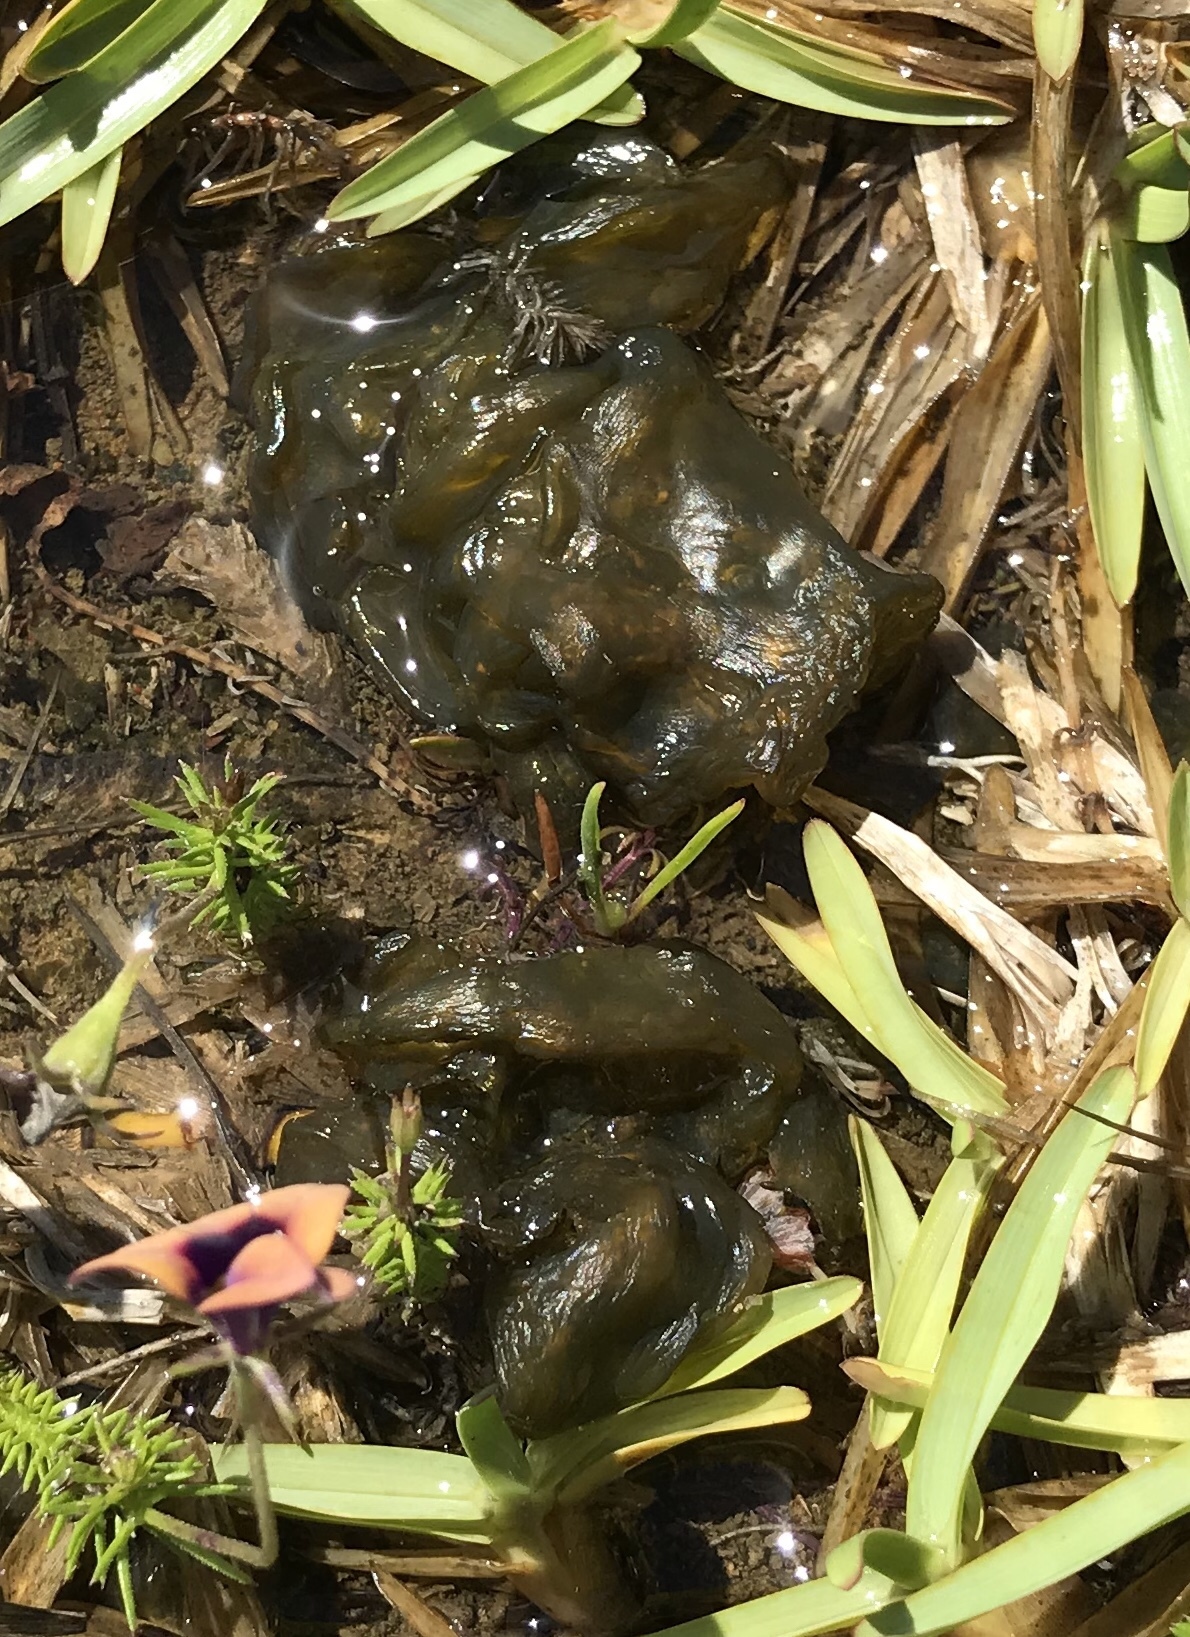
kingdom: Bacteria
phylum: Cyanobacteria
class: Cyanobacteriia
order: Cyanobacteriales
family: Nostocaceae
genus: Nostoc
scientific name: Nostoc commune
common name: Star jelly
